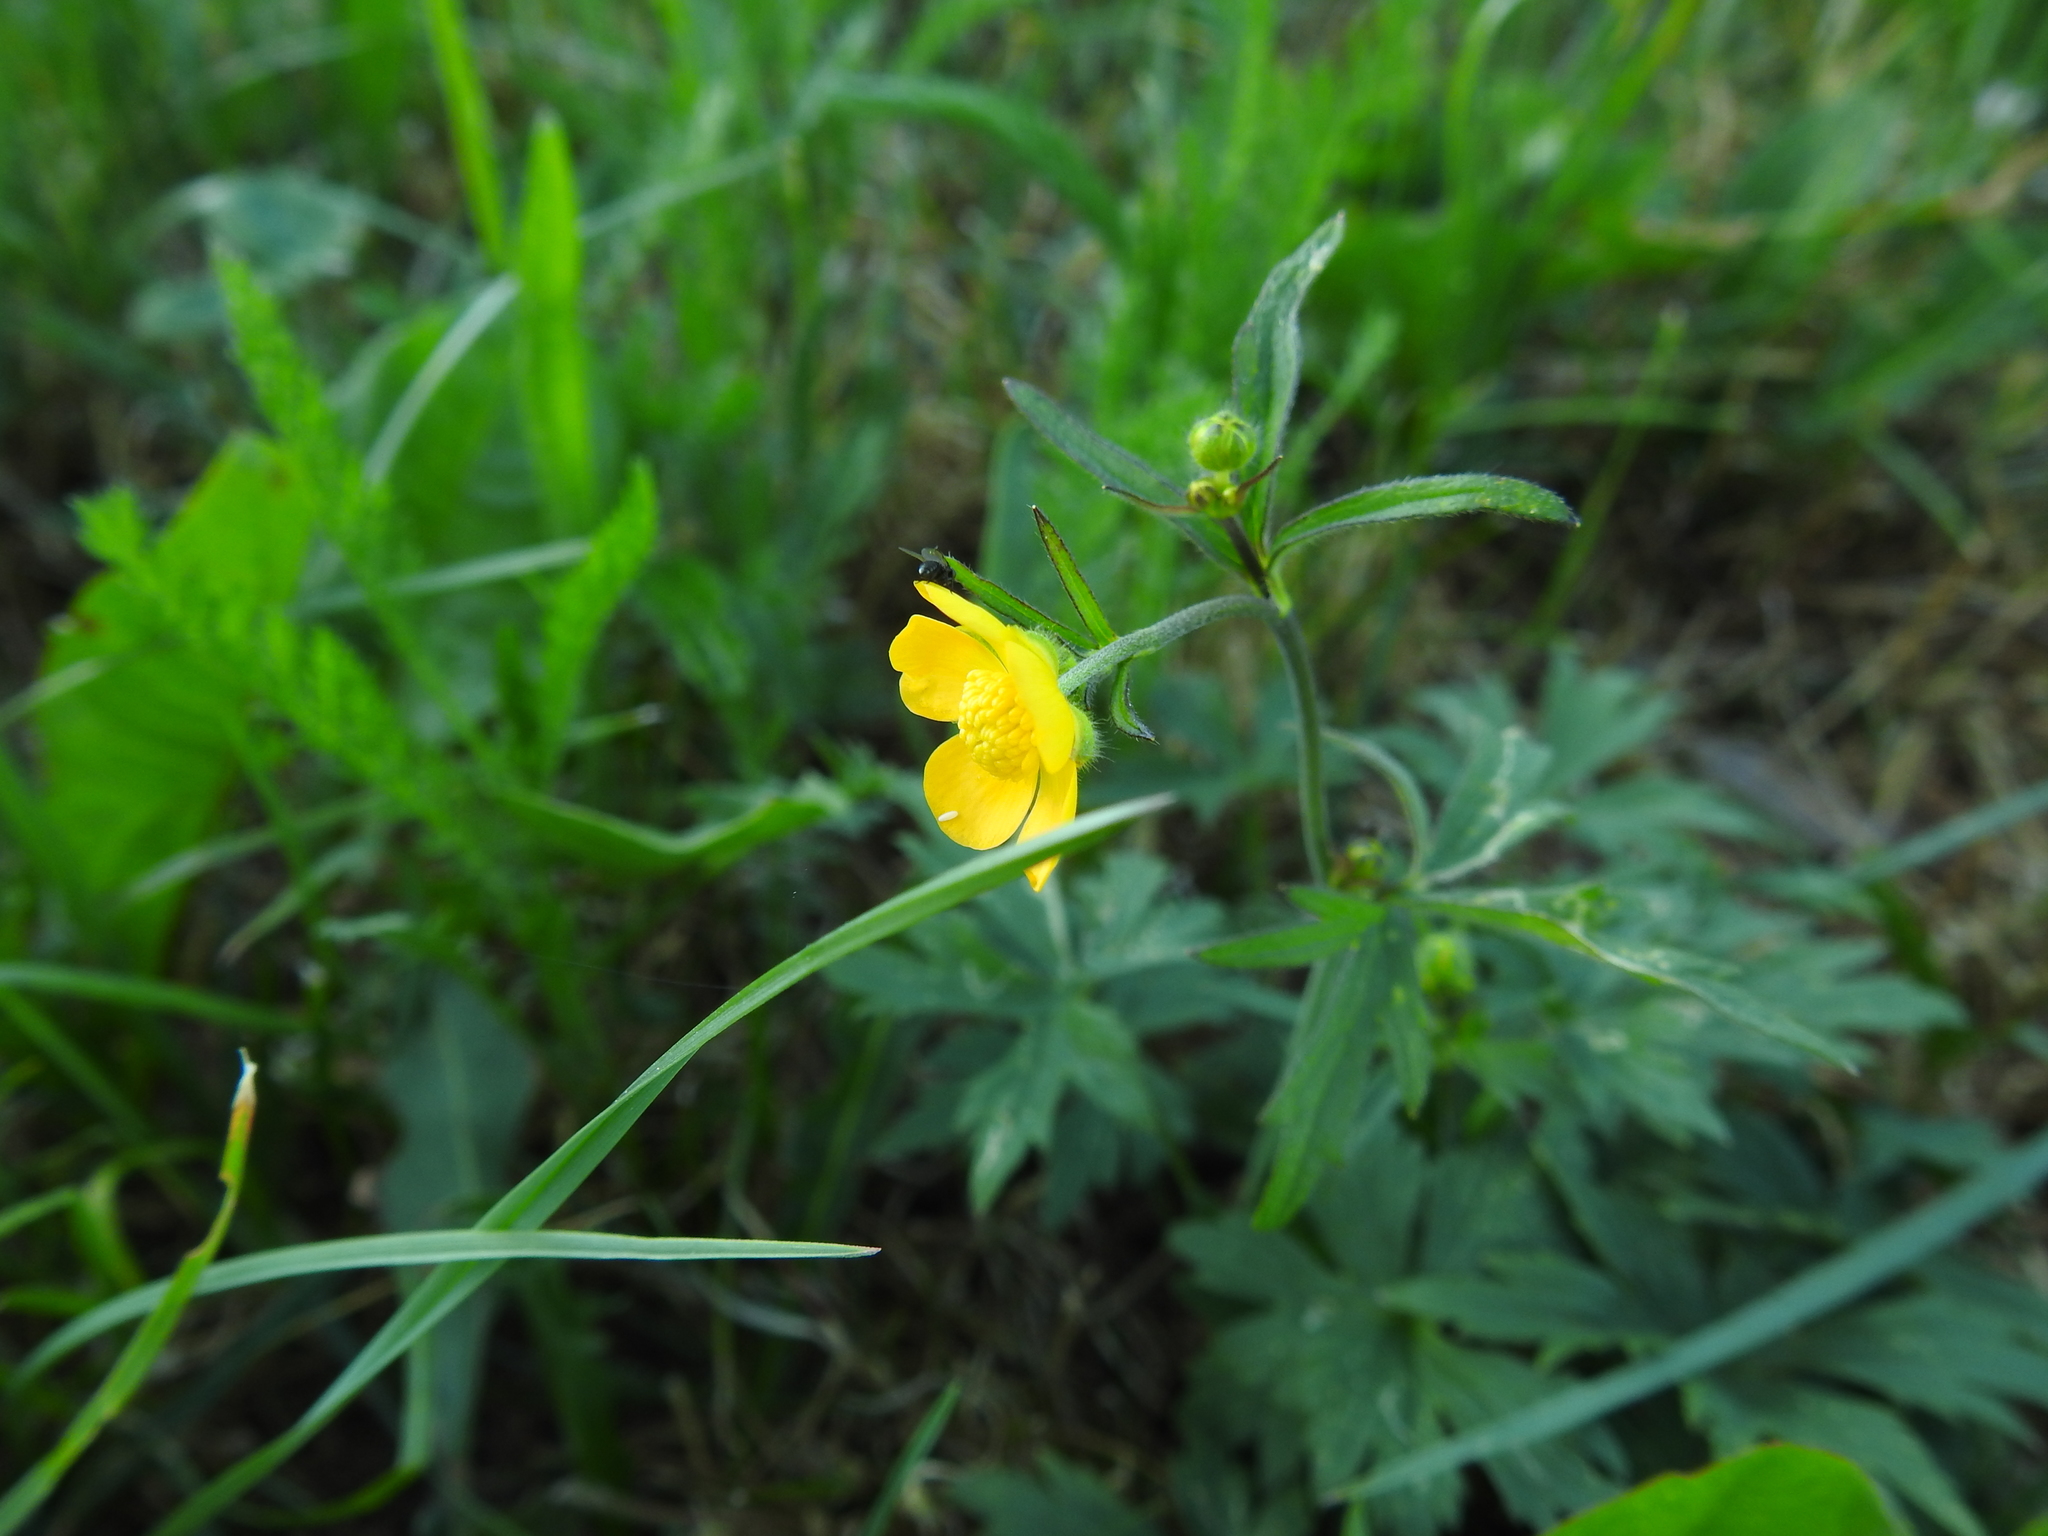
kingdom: Plantae
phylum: Tracheophyta
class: Magnoliopsida
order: Ranunculales
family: Ranunculaceae
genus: Ranunculus
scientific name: Ranunculus acris
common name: Meadow buttercup
